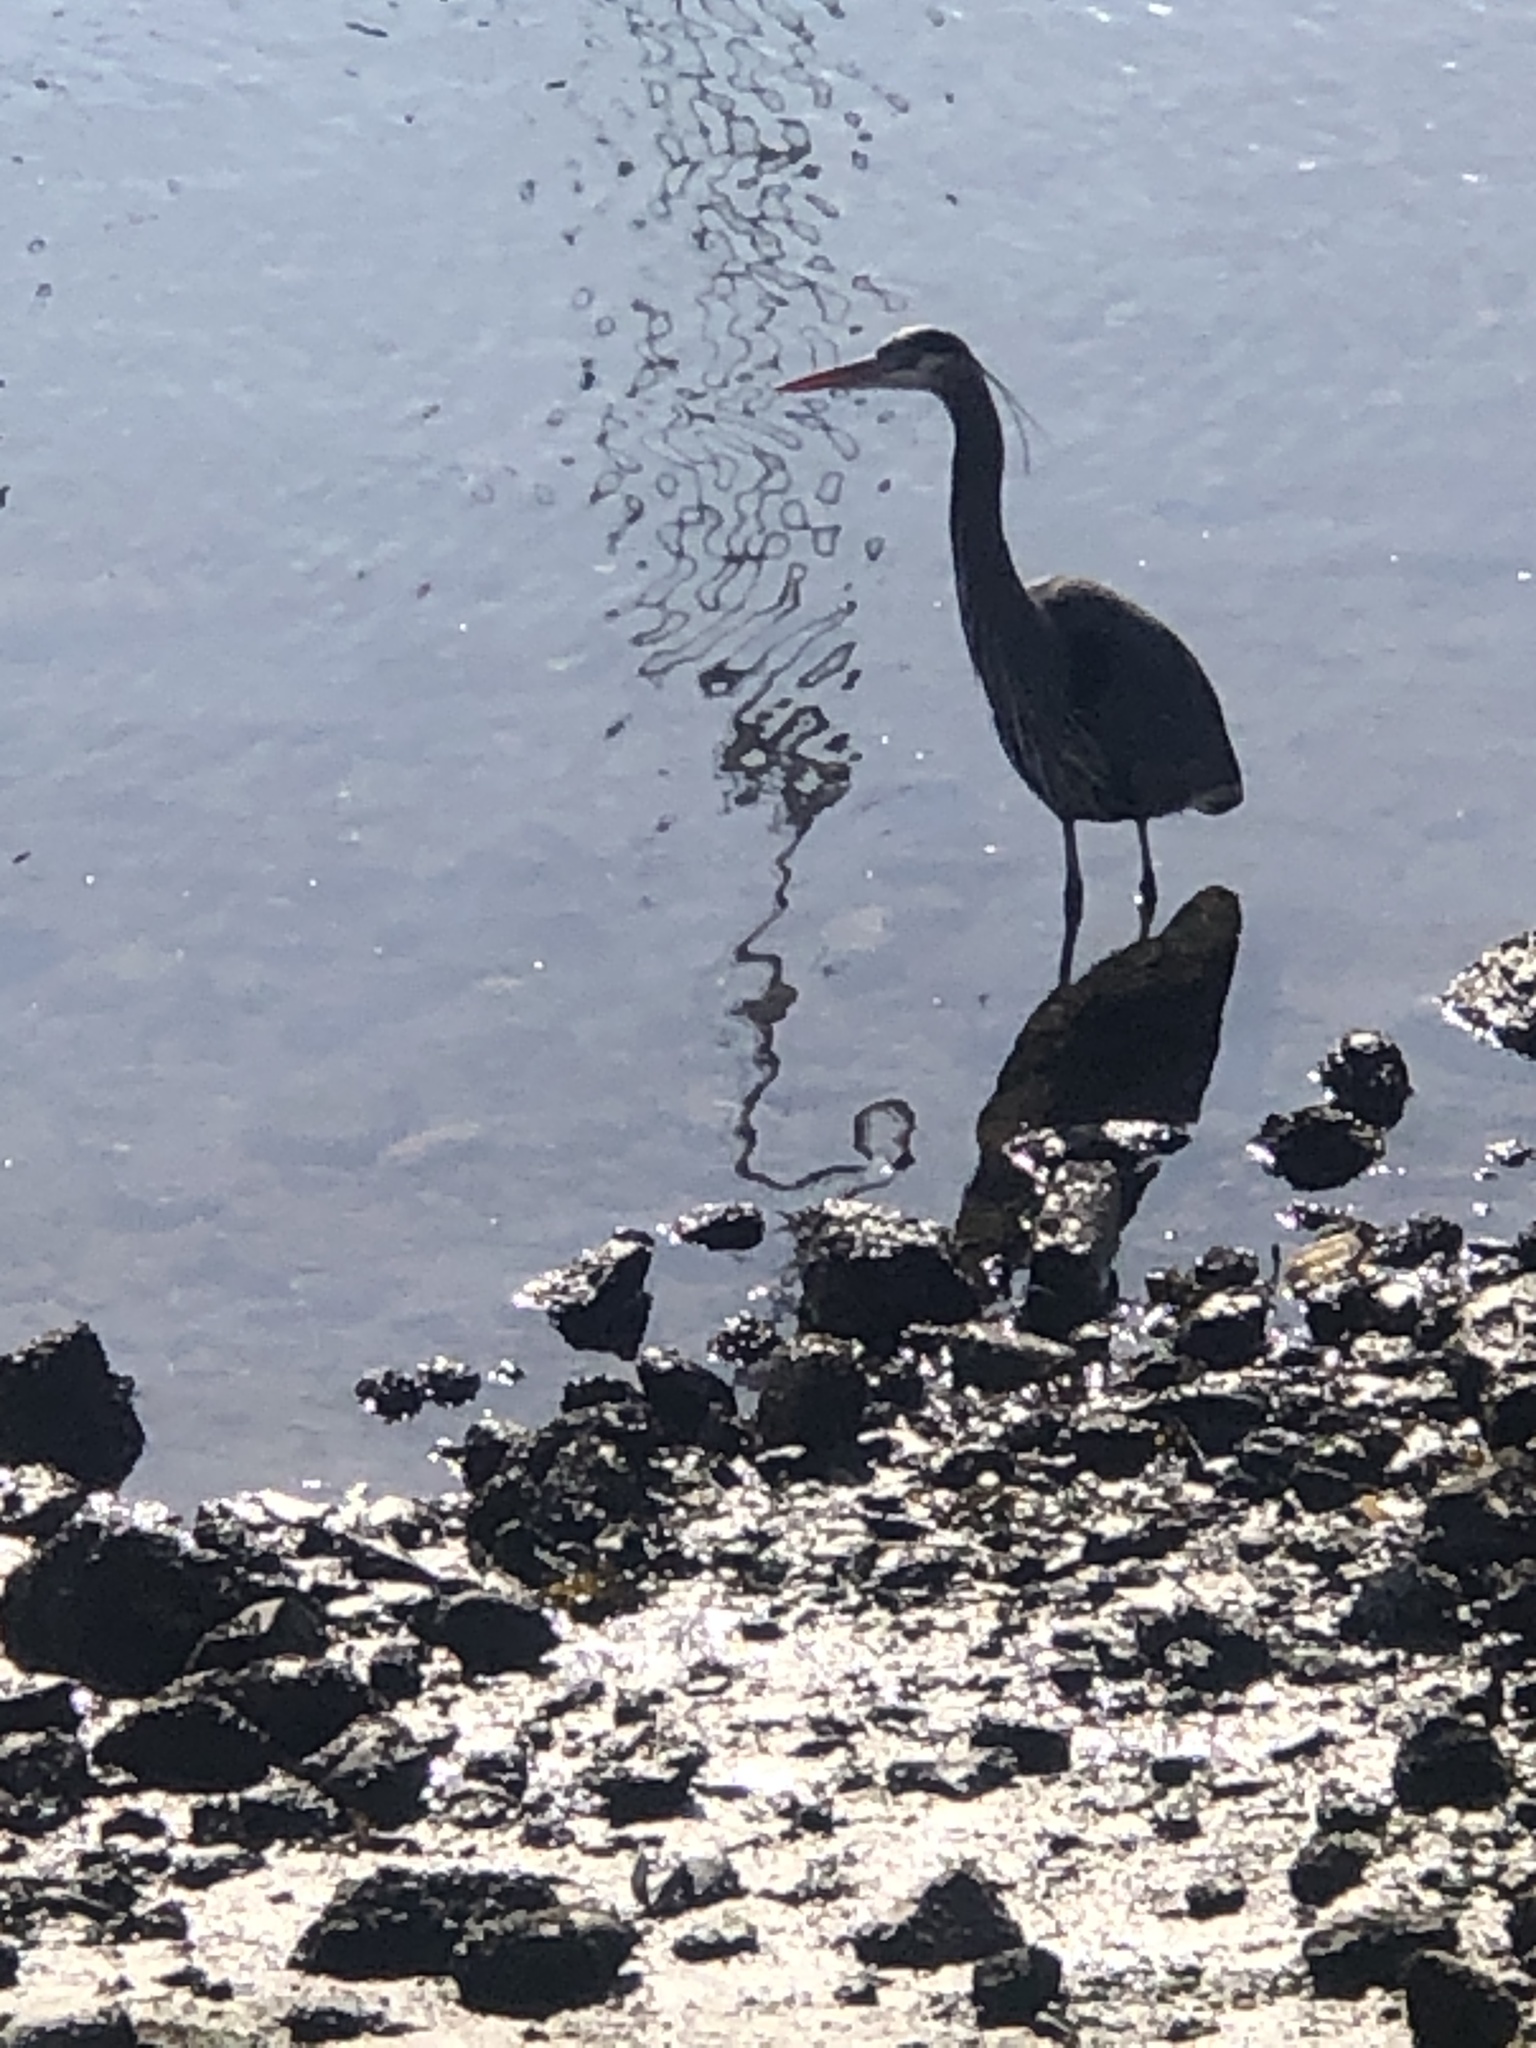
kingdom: Animalia
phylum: Chordata
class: Aves
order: Pelecaniformes
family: Ardeidae
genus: Ardea
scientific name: Ardea herodias
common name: Great blue heron
